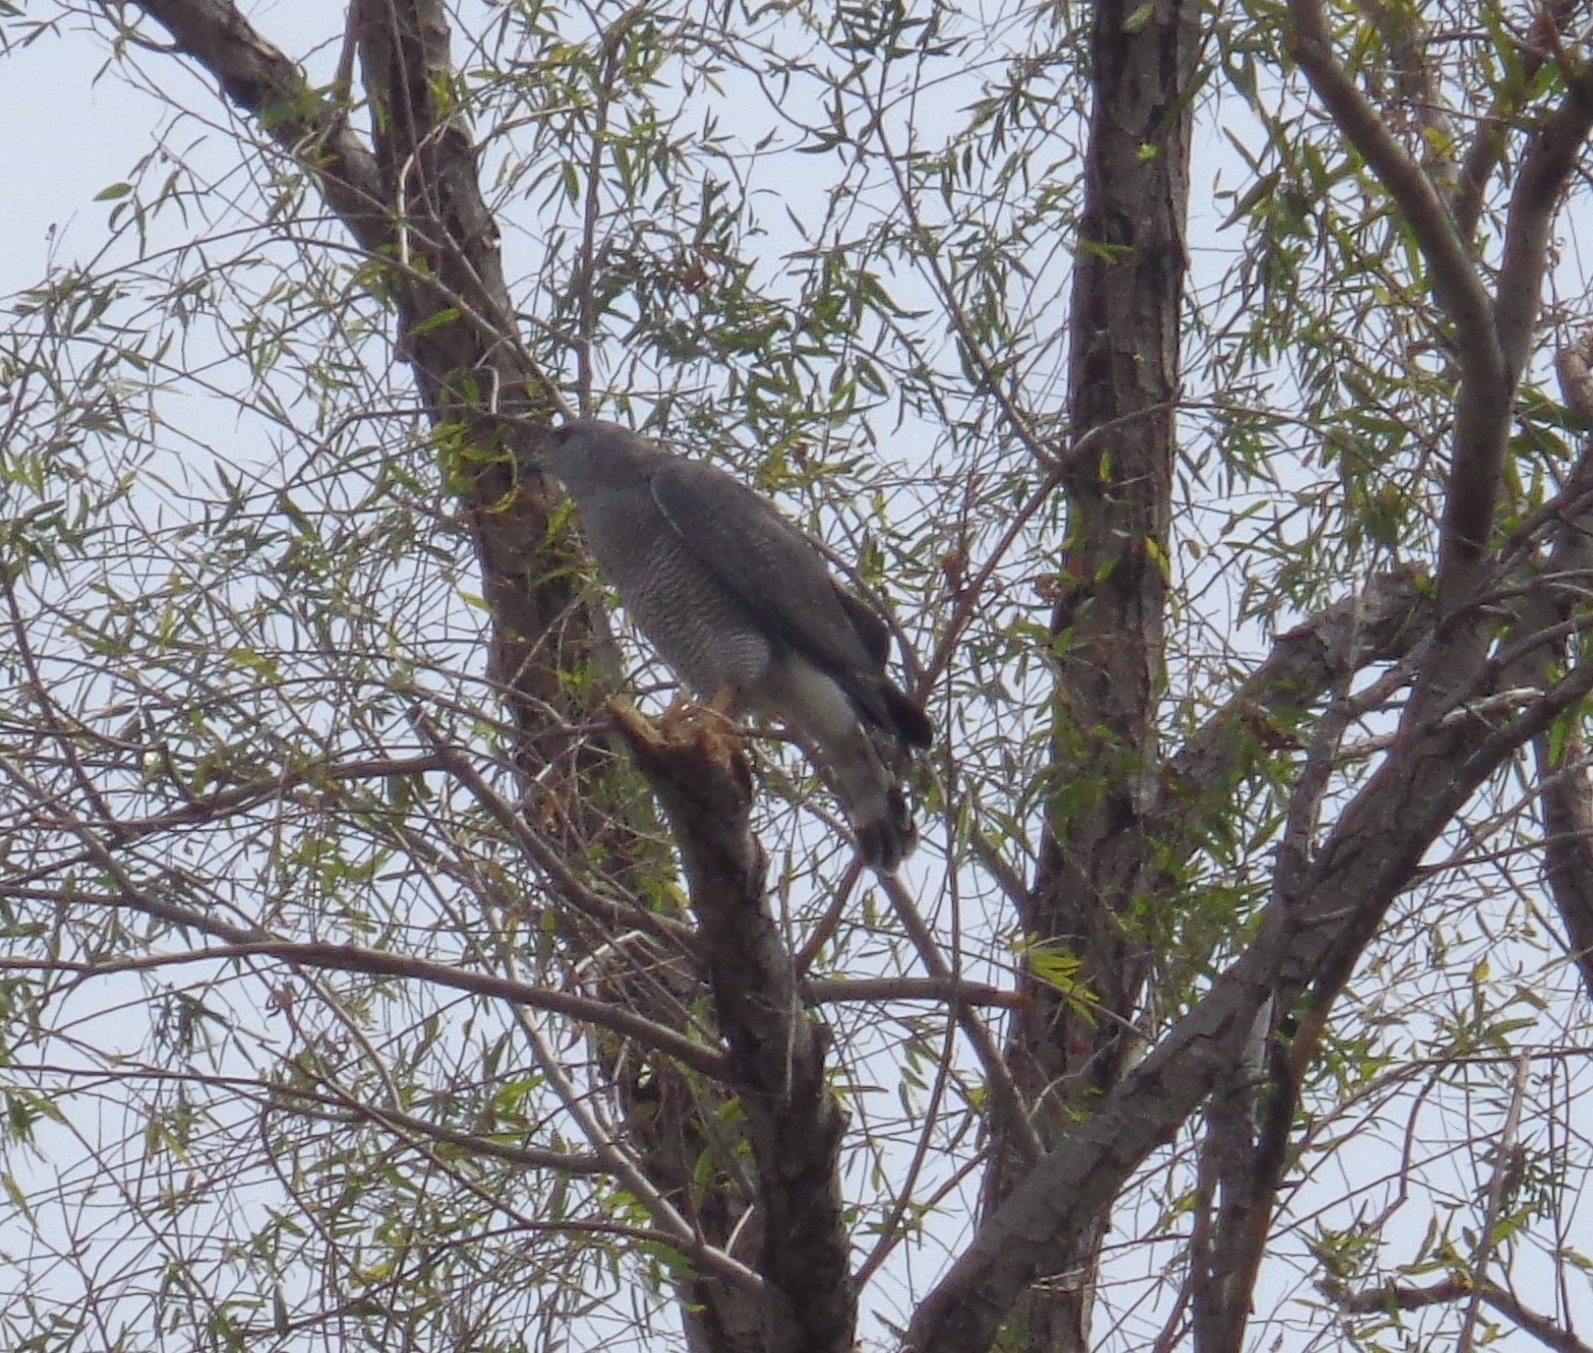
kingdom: Animalia
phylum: Chordata
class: Aves
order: Accipitriformes
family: Accipitridae
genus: Buteo
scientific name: Buteo nitidus
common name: Grey-lined hawk
